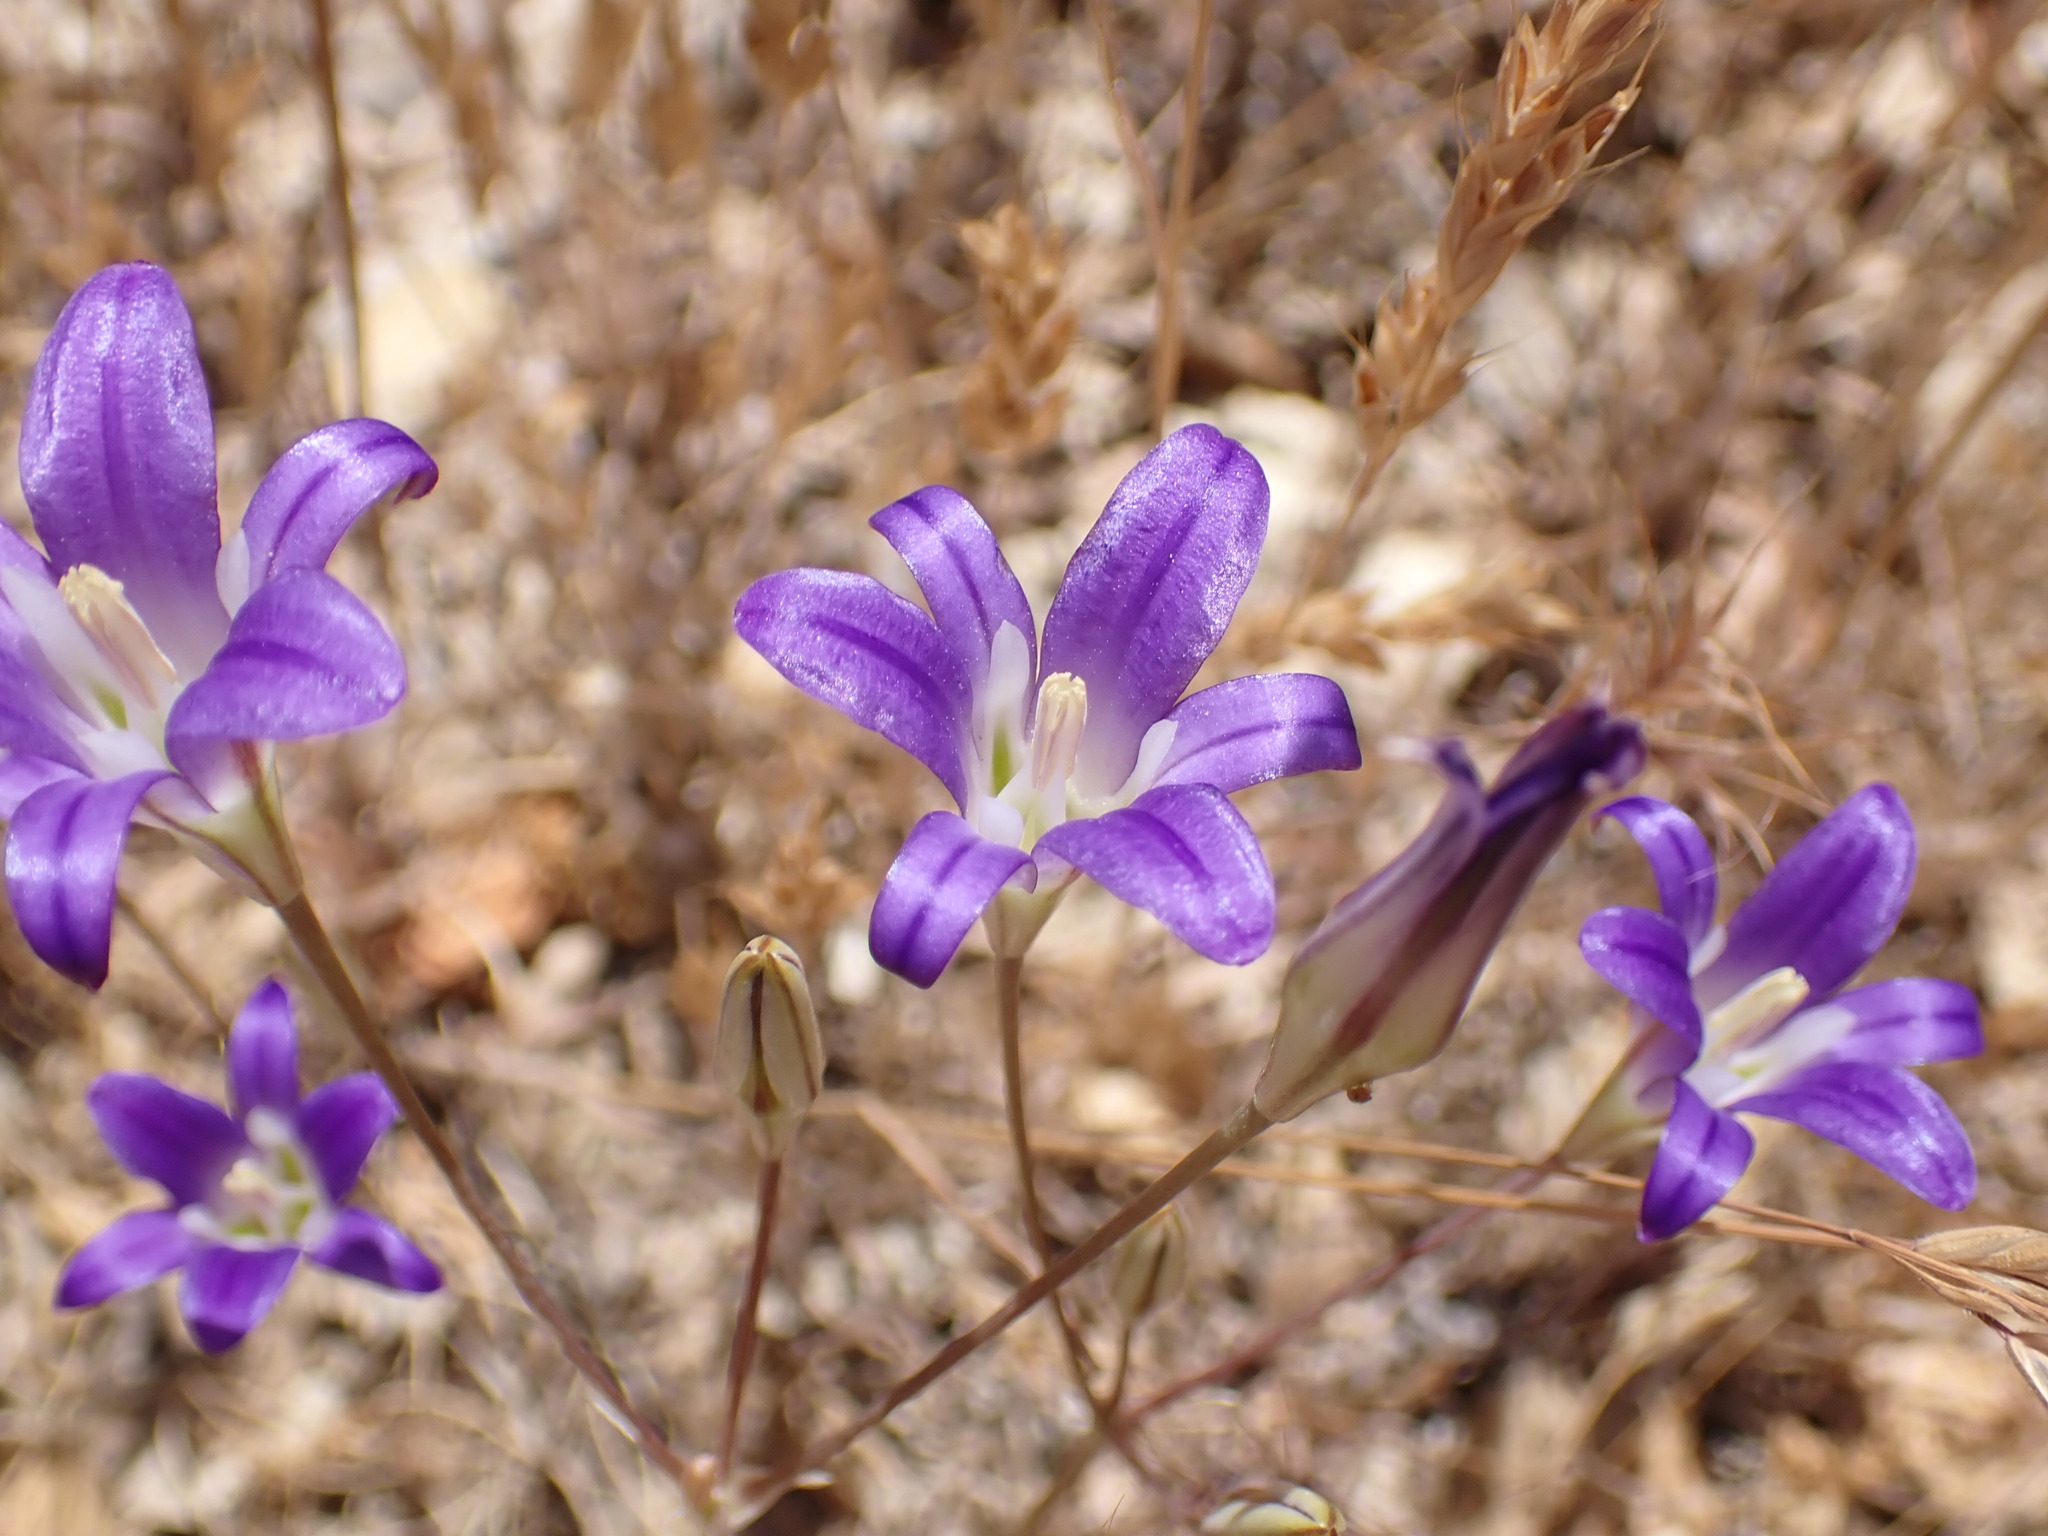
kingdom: Plantae
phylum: Tracheophyta
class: Liliopsida
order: Asparagales
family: Asparagaceae
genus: Brodiaea
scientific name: Brodiaea elegans
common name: Elegant cluster-lily
